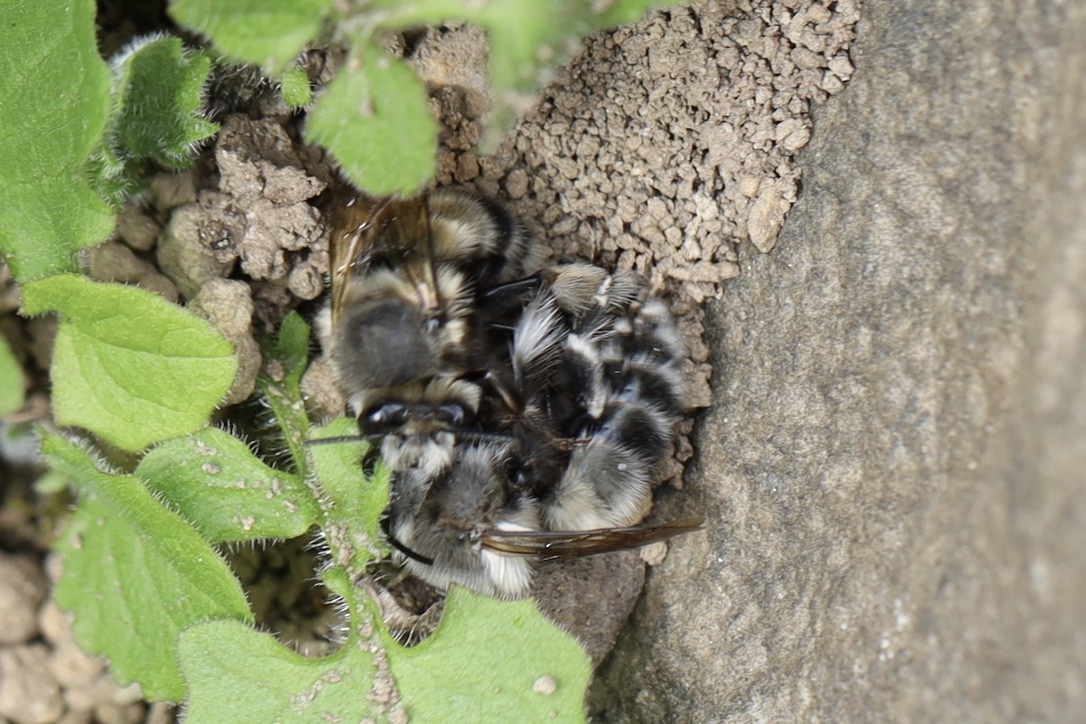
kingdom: Animalia
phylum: Arthropoda
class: Insecta
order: Hymenoptera
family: Apidae
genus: Anthophora
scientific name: Anthophora pacifica
